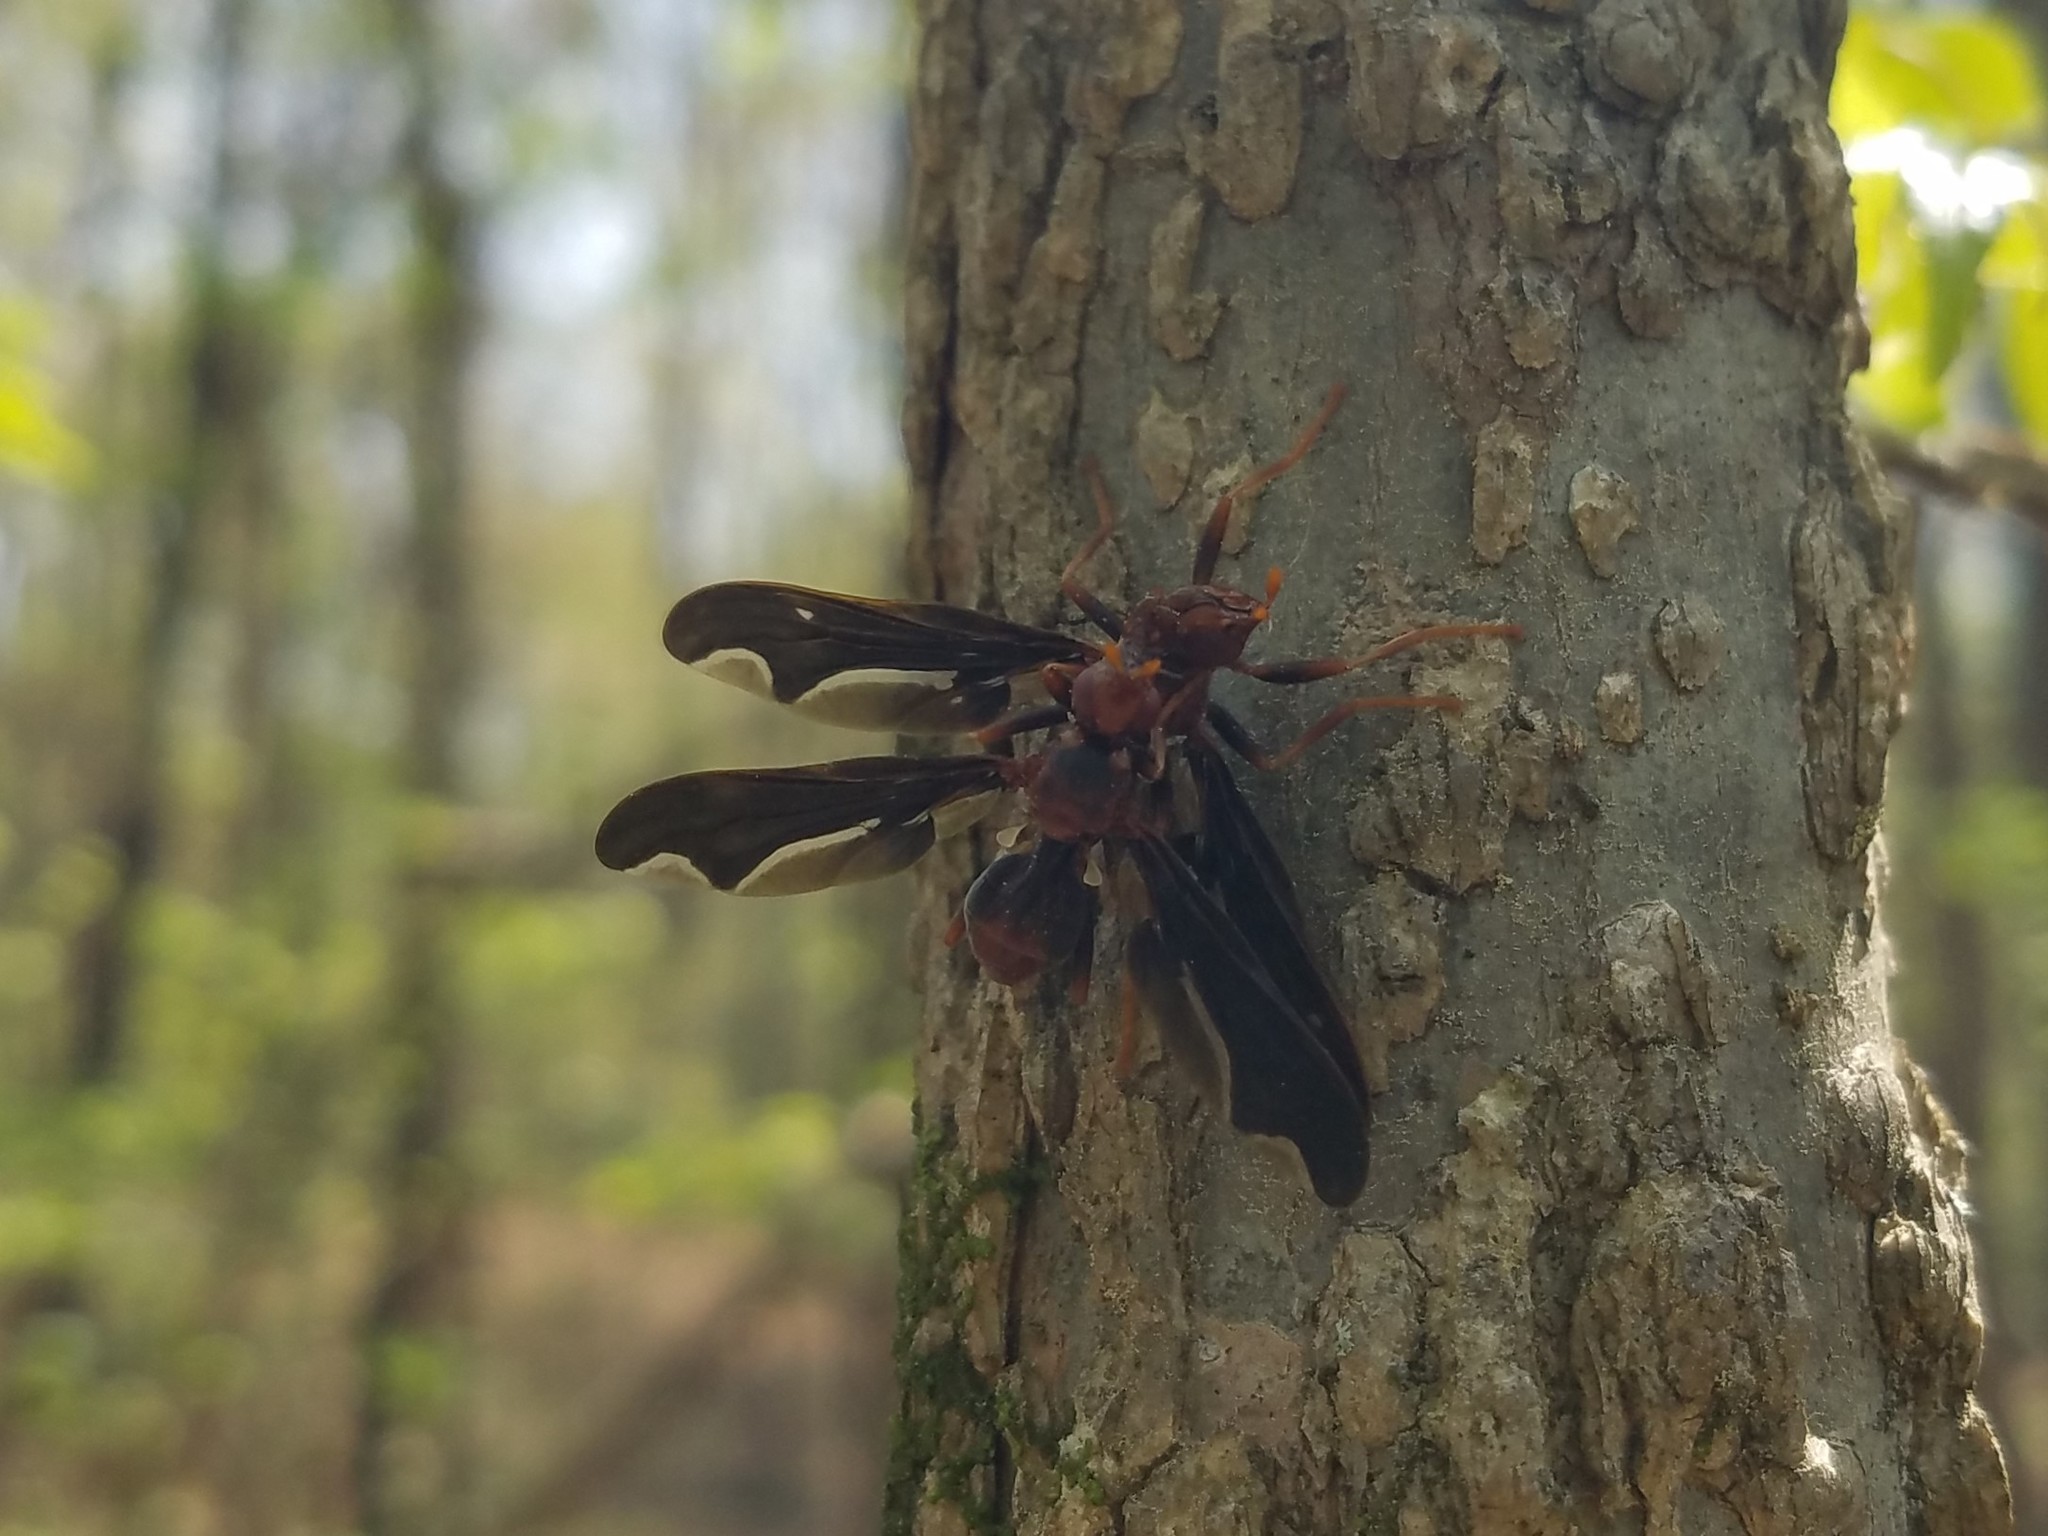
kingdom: Animalia
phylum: Arthropoda
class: Insecta
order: Diptera
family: Pyrgotidae
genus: Pyrgota
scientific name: Pyrgota undata
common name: Waved light fly
